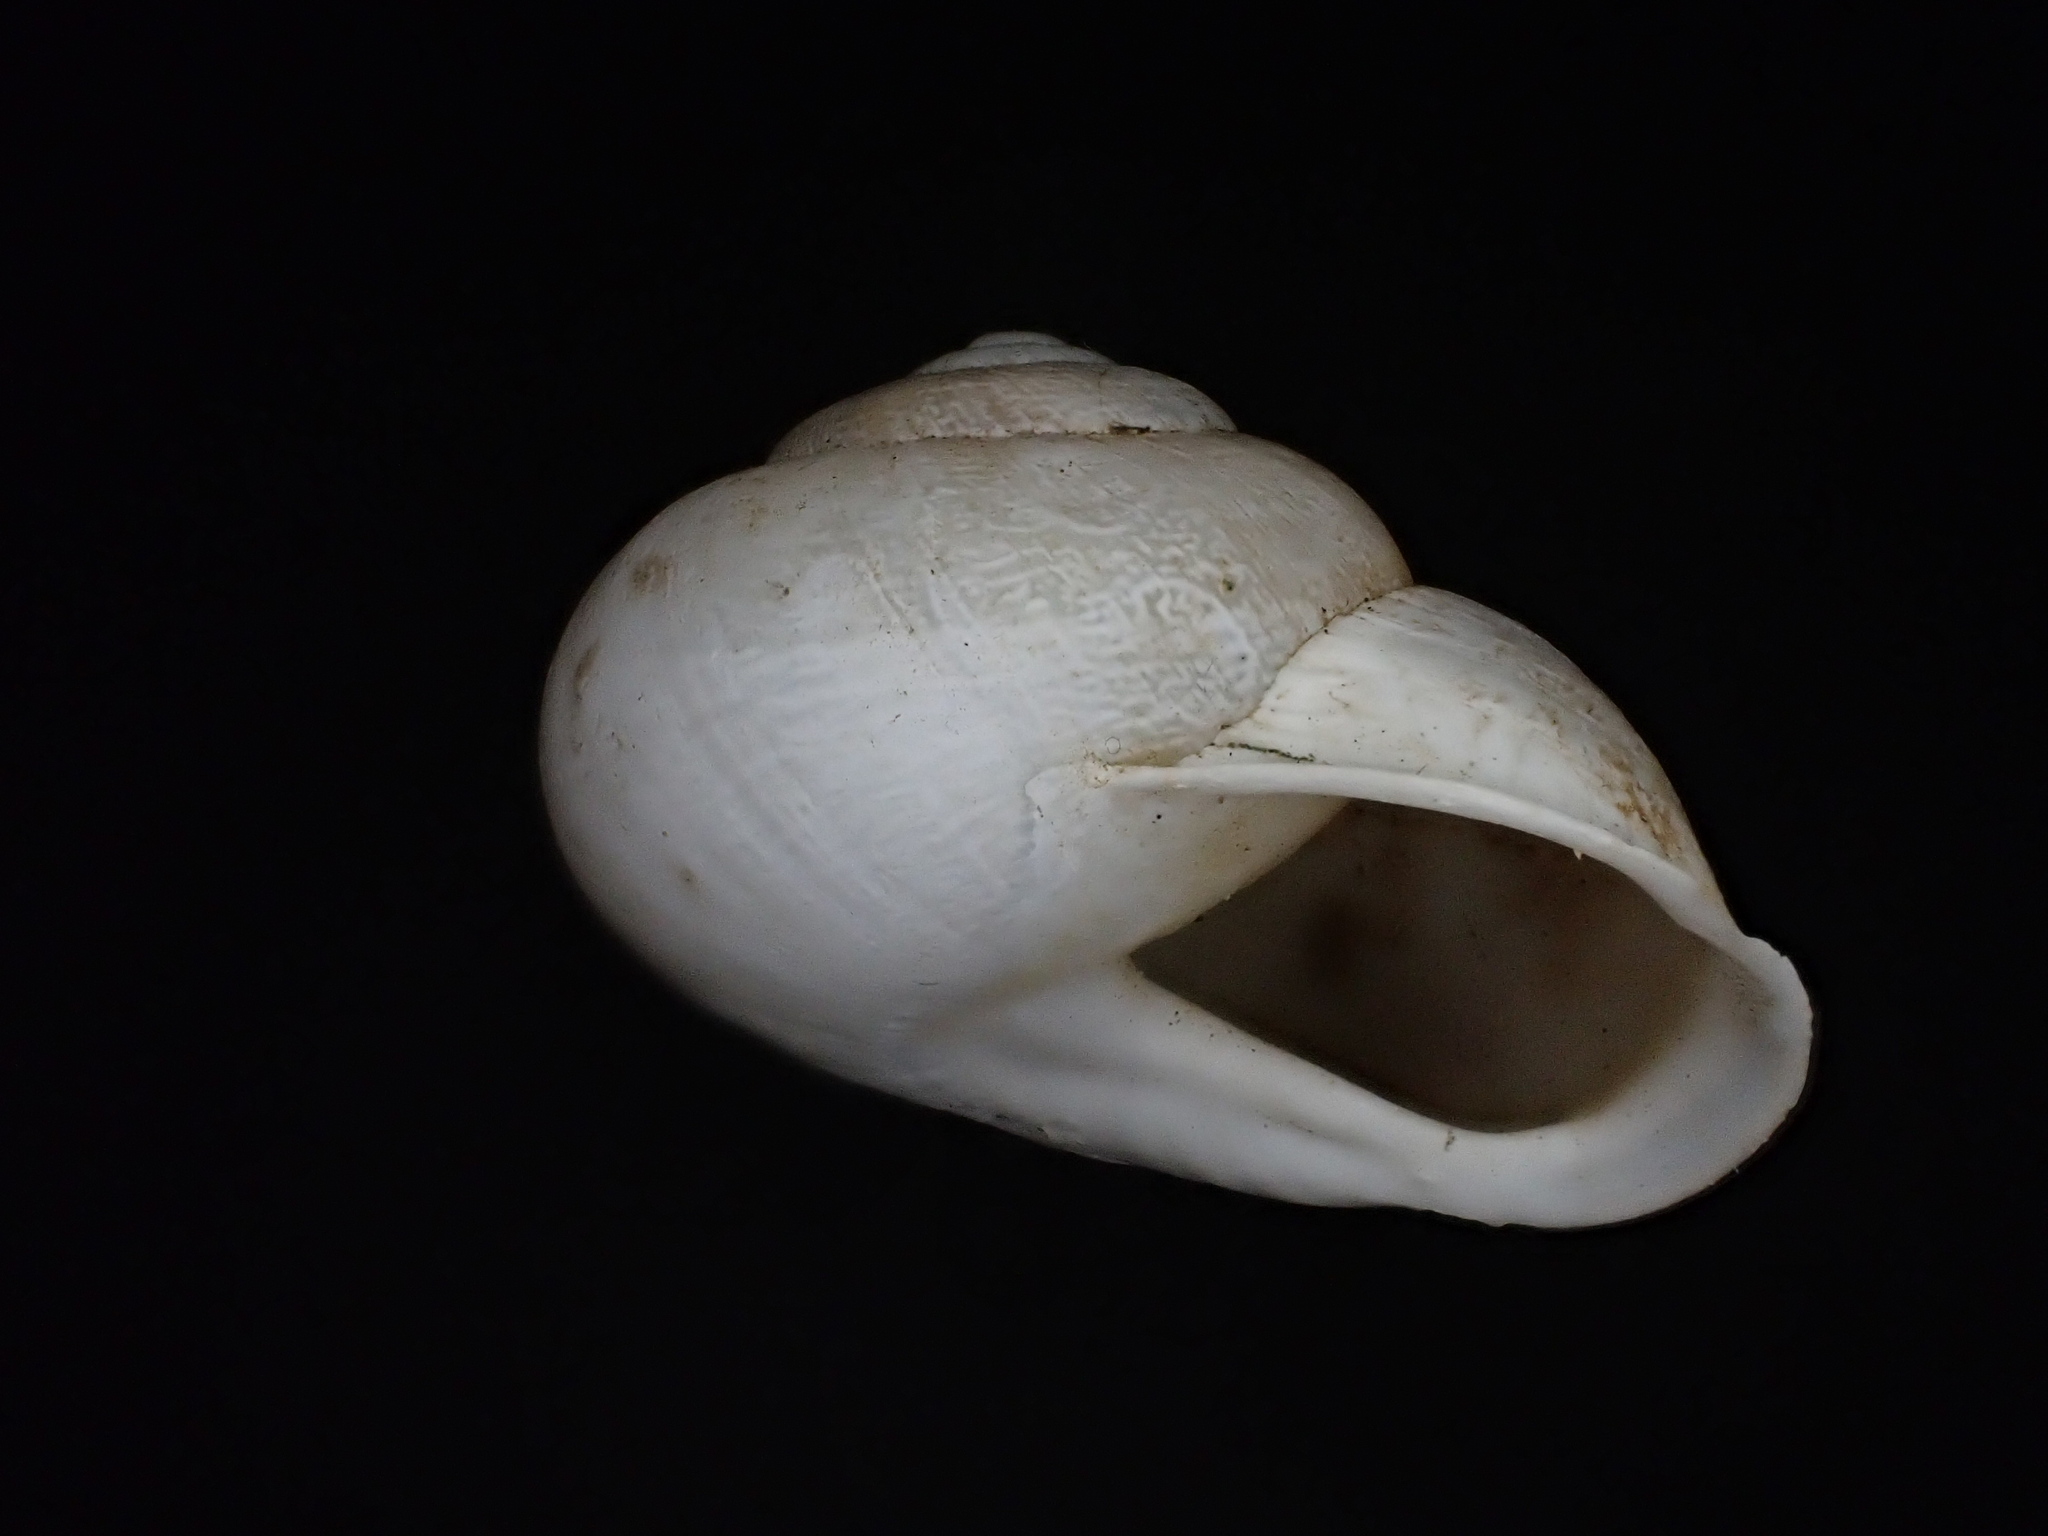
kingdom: Animalia
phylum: Mollusca
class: Gastropoda
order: Stylommatophora
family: Helicidae
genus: Eobania
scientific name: Eobania vermiculata
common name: Chocolateband snail
